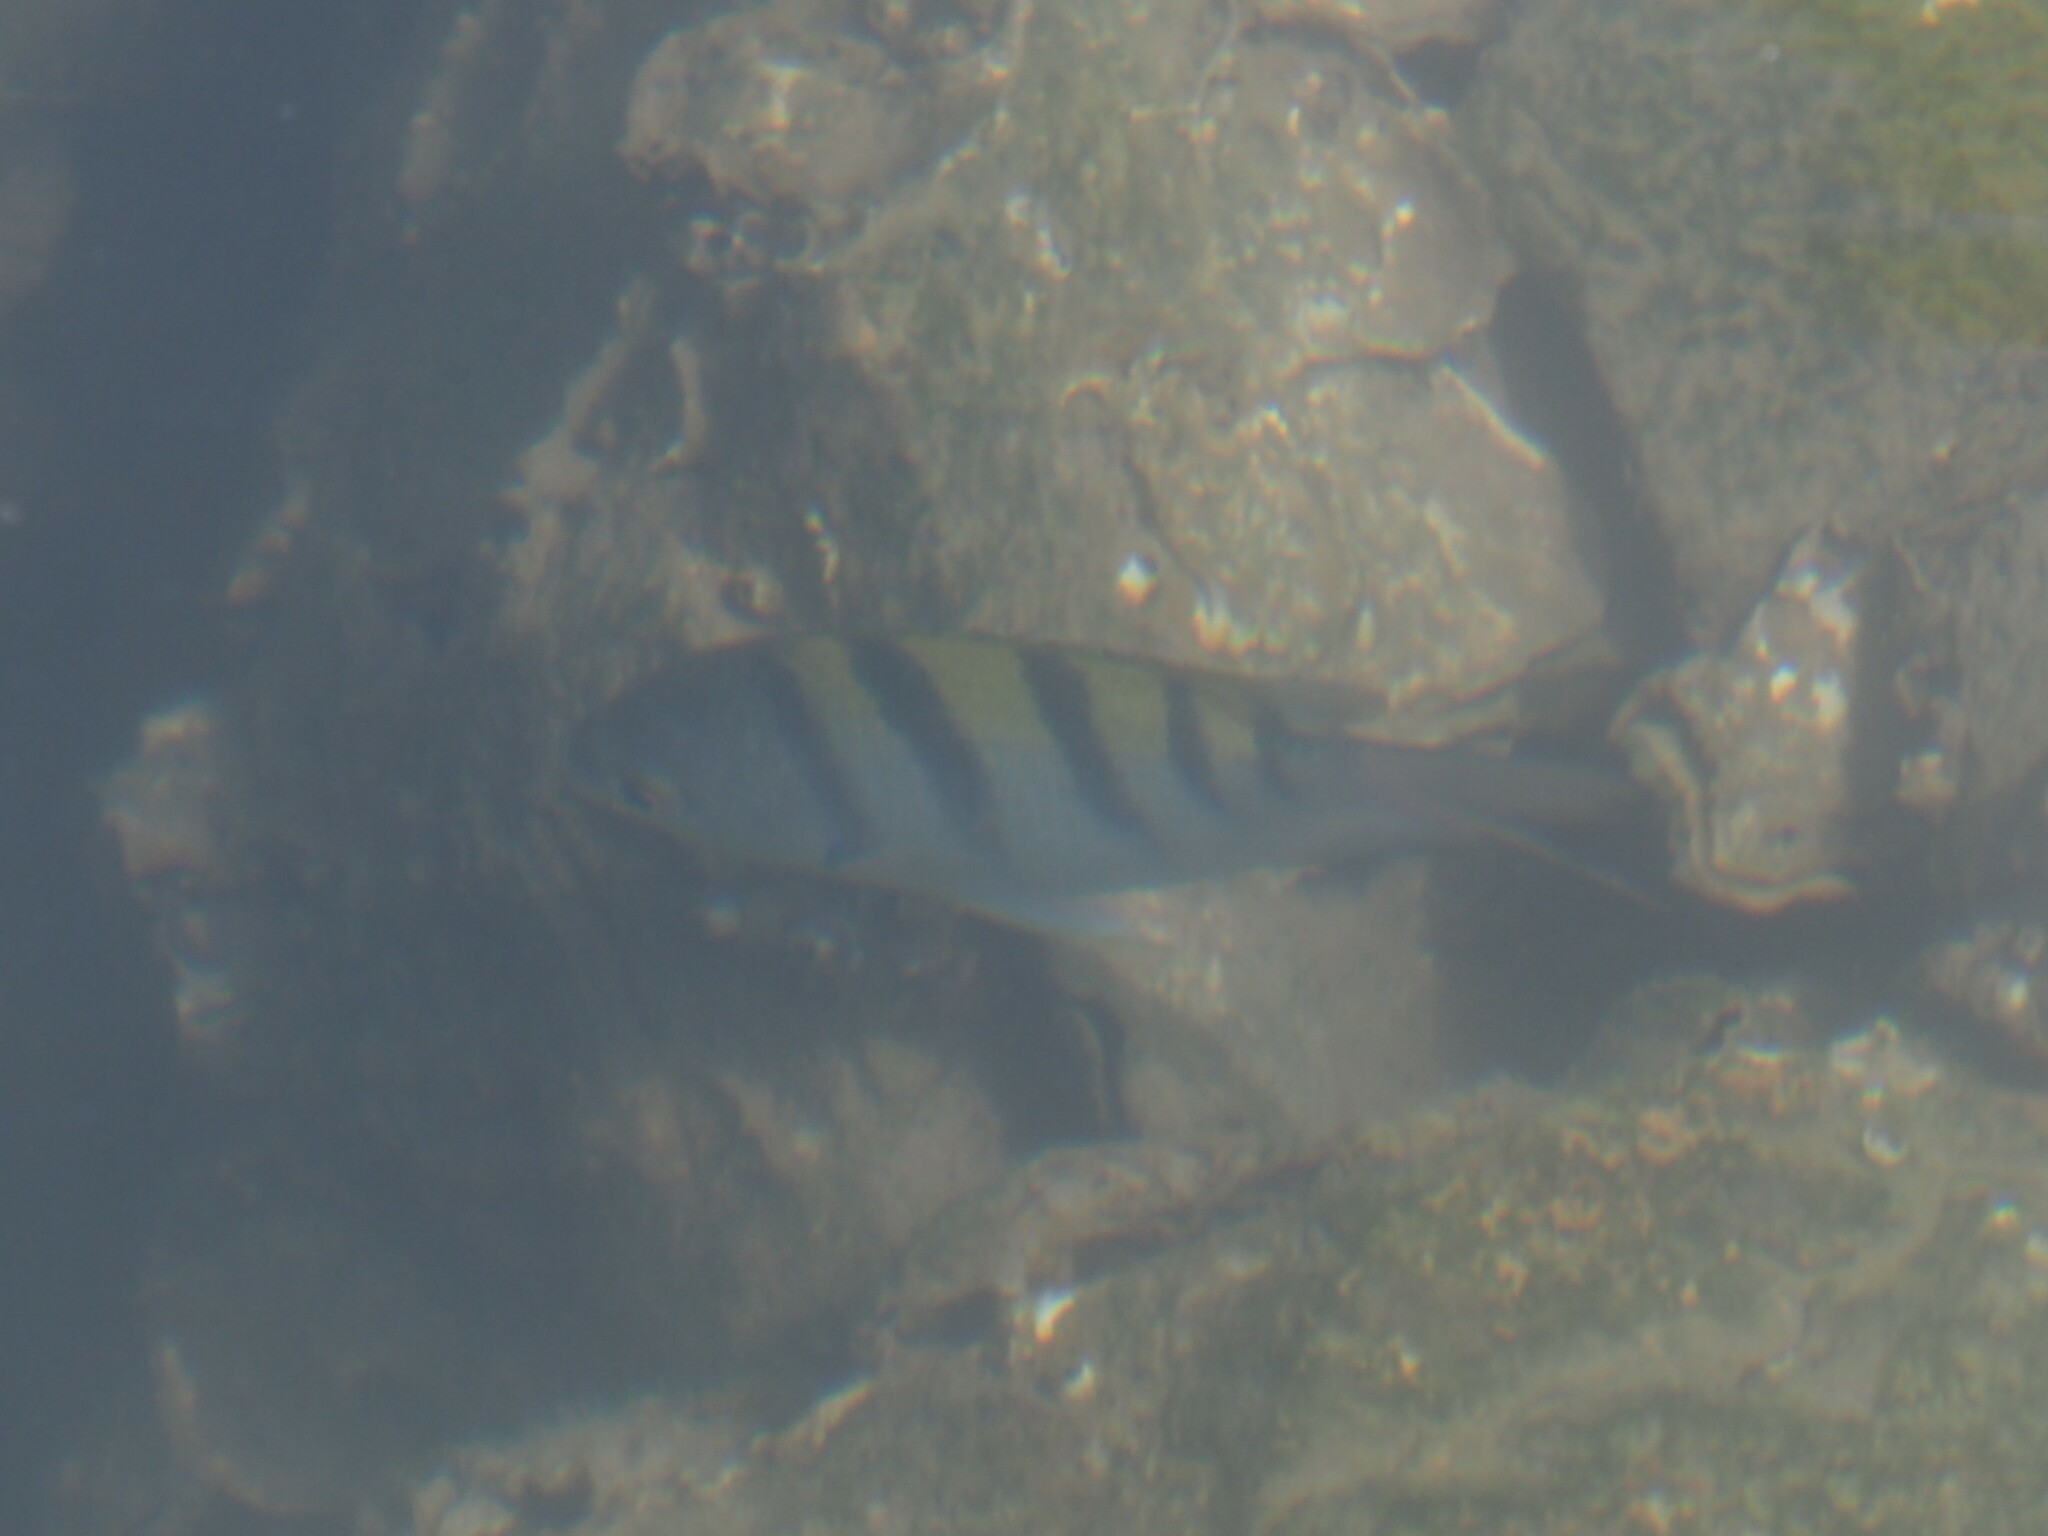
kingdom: Animalia
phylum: Chordata
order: Perciformes
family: Pomacentridae
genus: Abudefduf
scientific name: Abudefduf troschelii
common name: Panamic sergeant major
